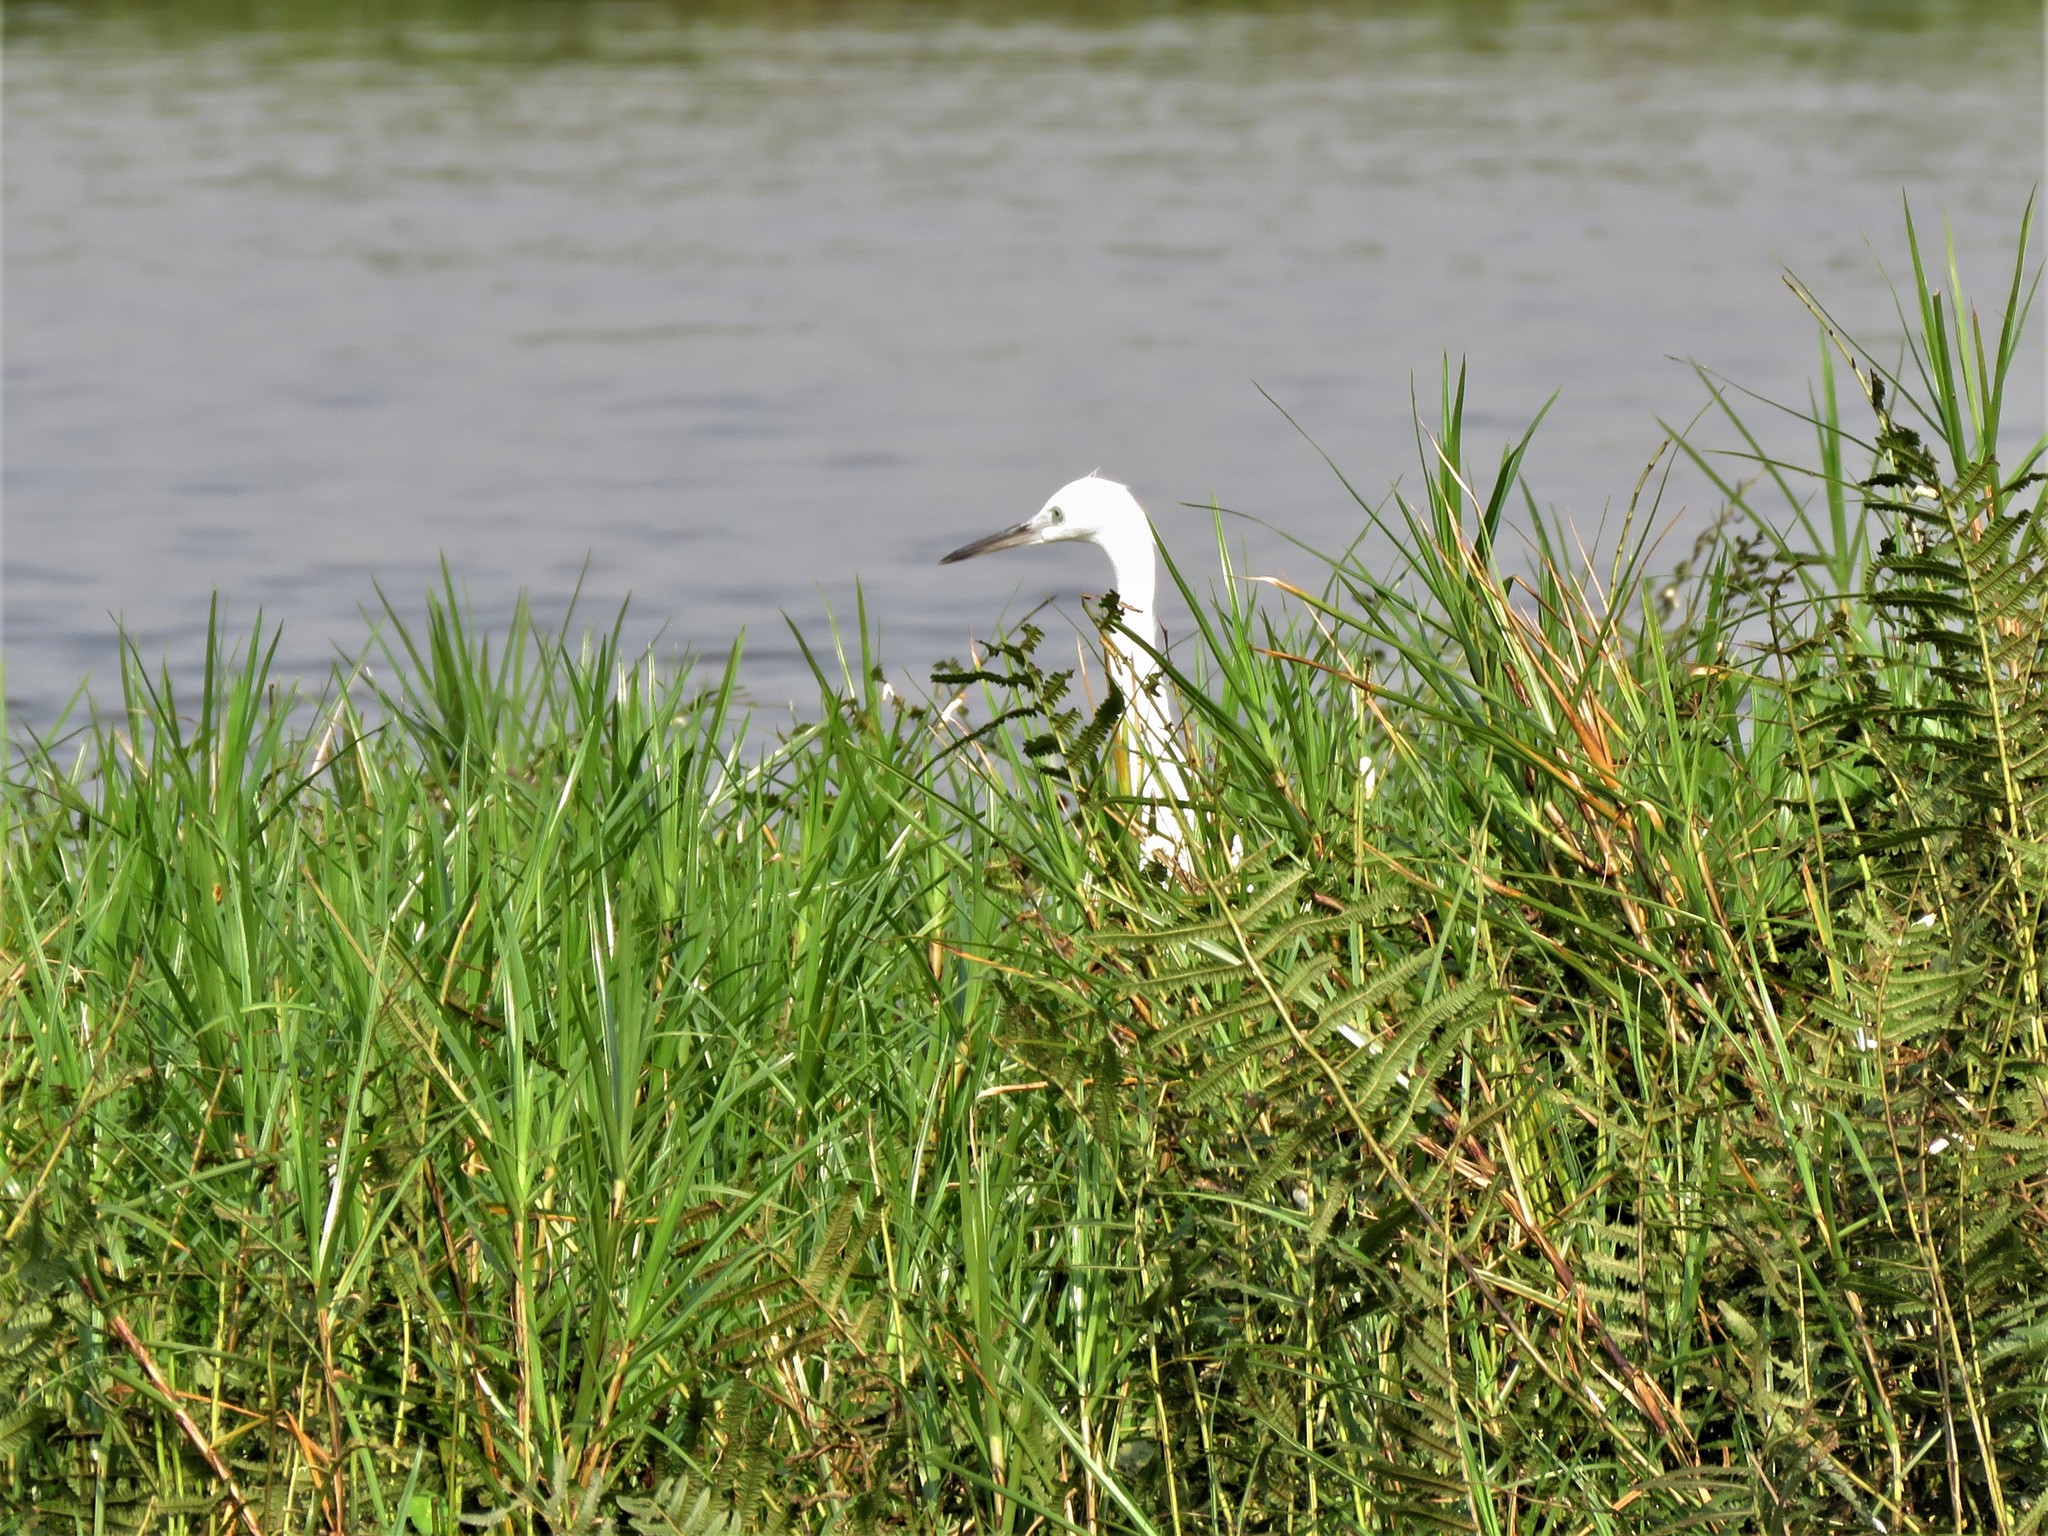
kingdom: Animalia
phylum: Chordata
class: Aves
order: Pelecaniformes
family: Ardeidae
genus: Egretta
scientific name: Egretta garzetta
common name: Little egret
